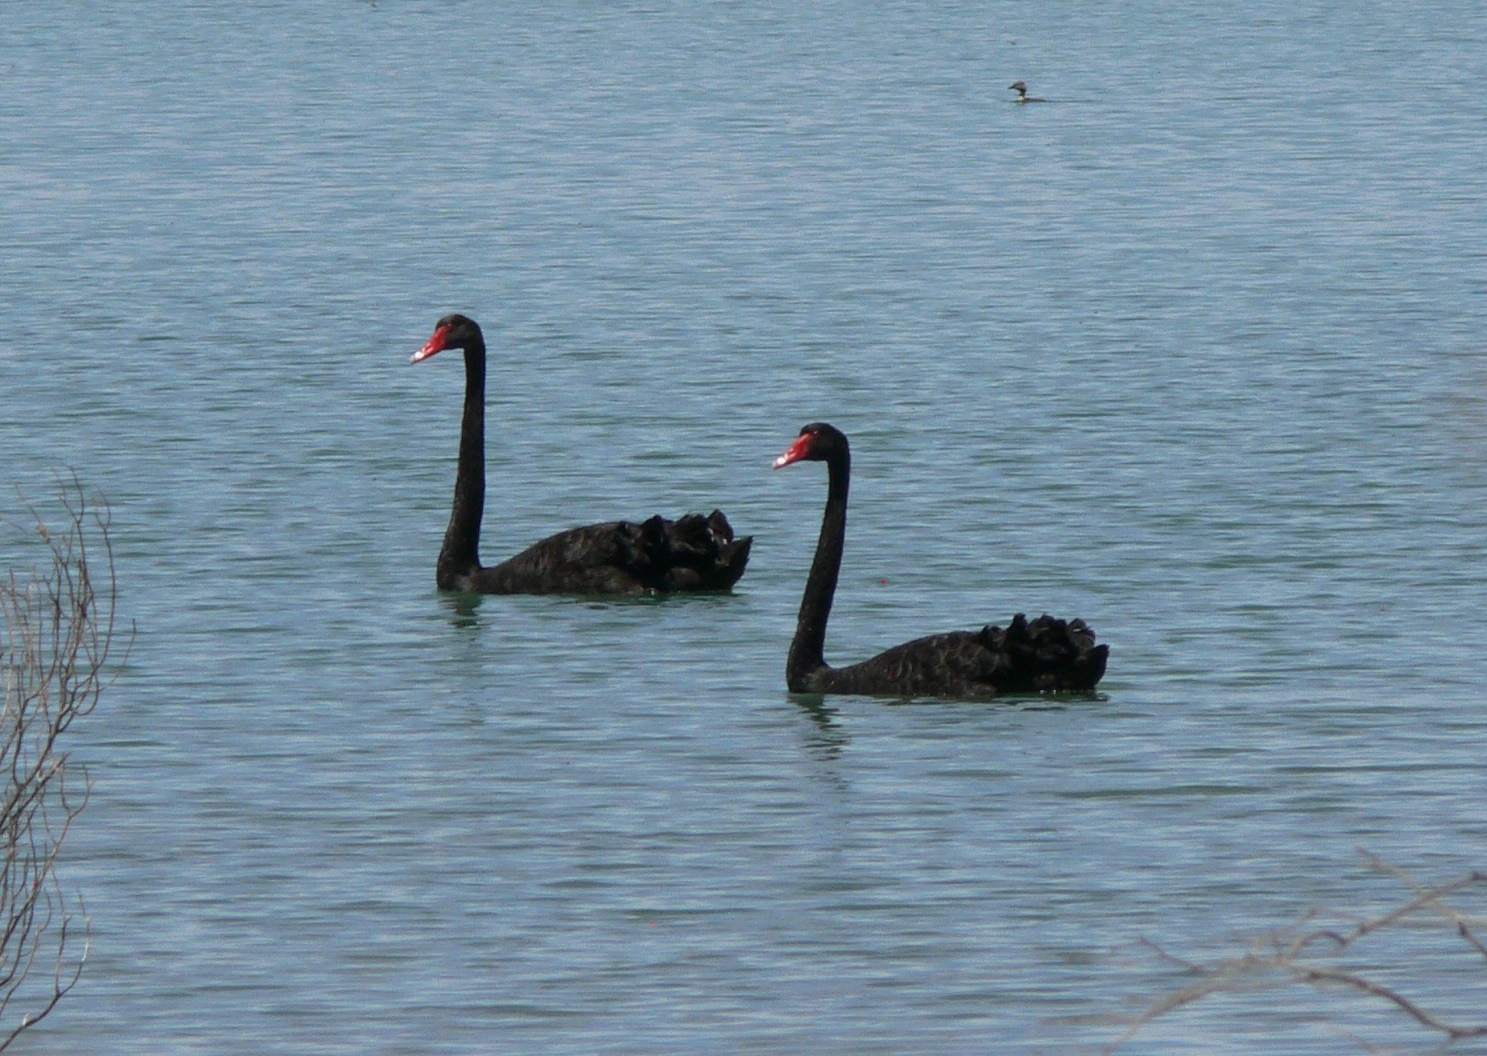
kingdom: Animalia
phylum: Chordata
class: Aves
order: Anseriformes
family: Anatidae
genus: Cygnus
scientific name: Cygnus atratus
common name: Black swan
